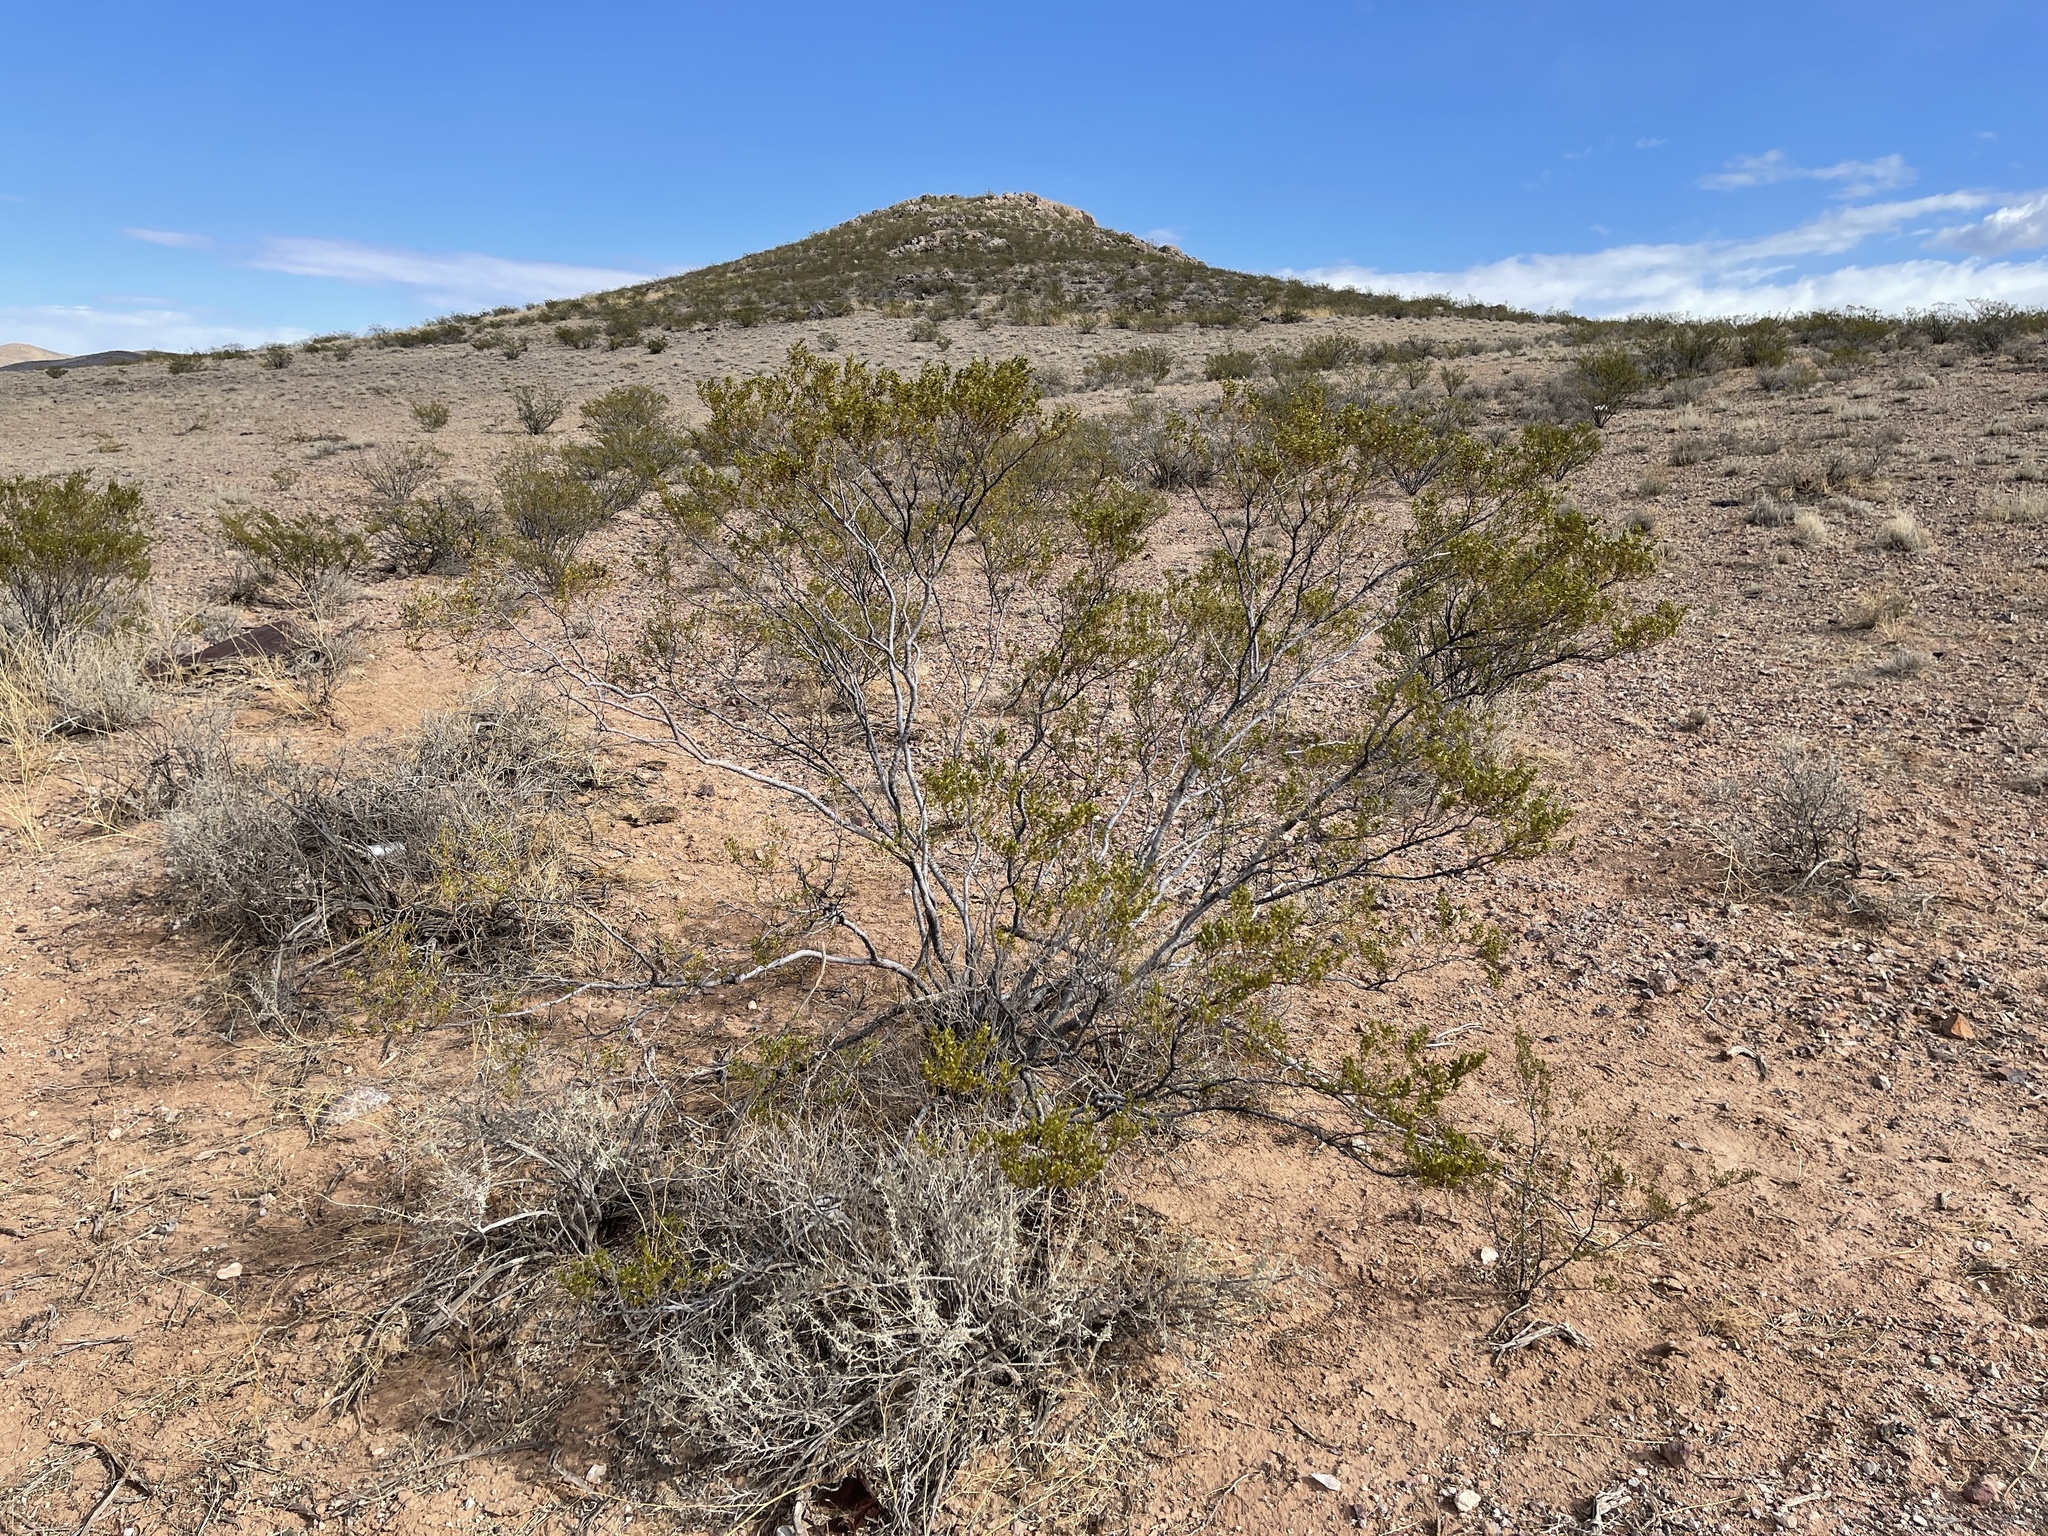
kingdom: Plantae
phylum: Tracheophyta
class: Magnoliopsida
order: Zygophyllales
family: Zygophyllaceae
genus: Larrea
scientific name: Larrea tridentata
